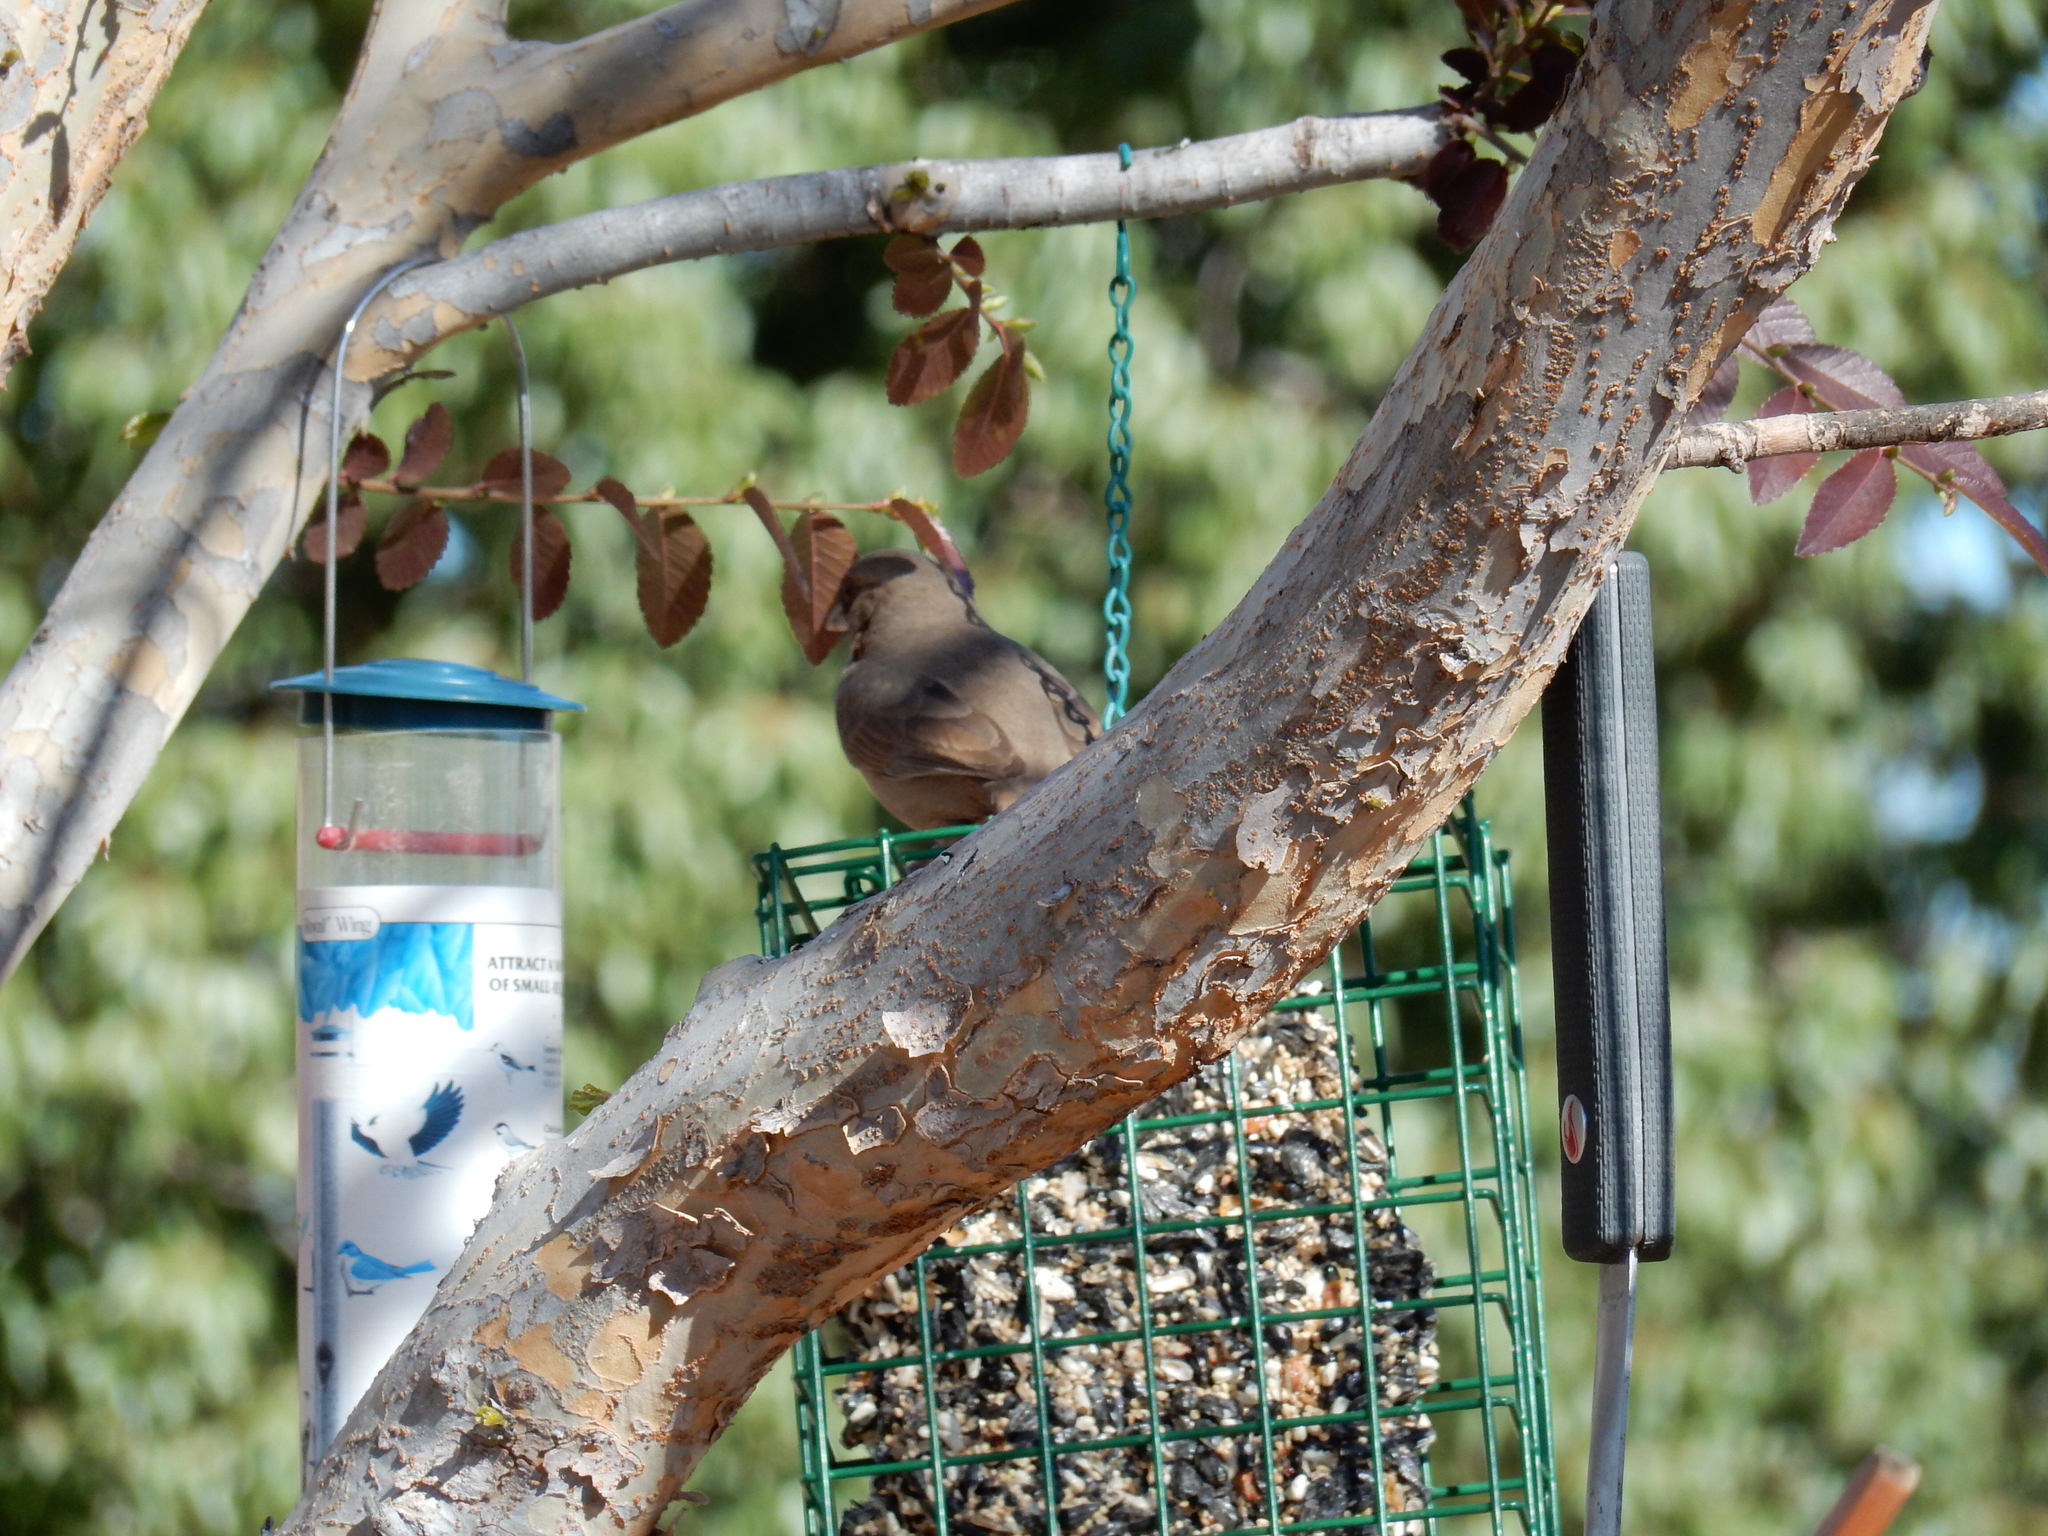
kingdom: Animalia
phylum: Chordata
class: Aves
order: Passeriformes
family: Passerellidae
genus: Melozone
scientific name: Melozone aberti
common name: Abert's towhee
